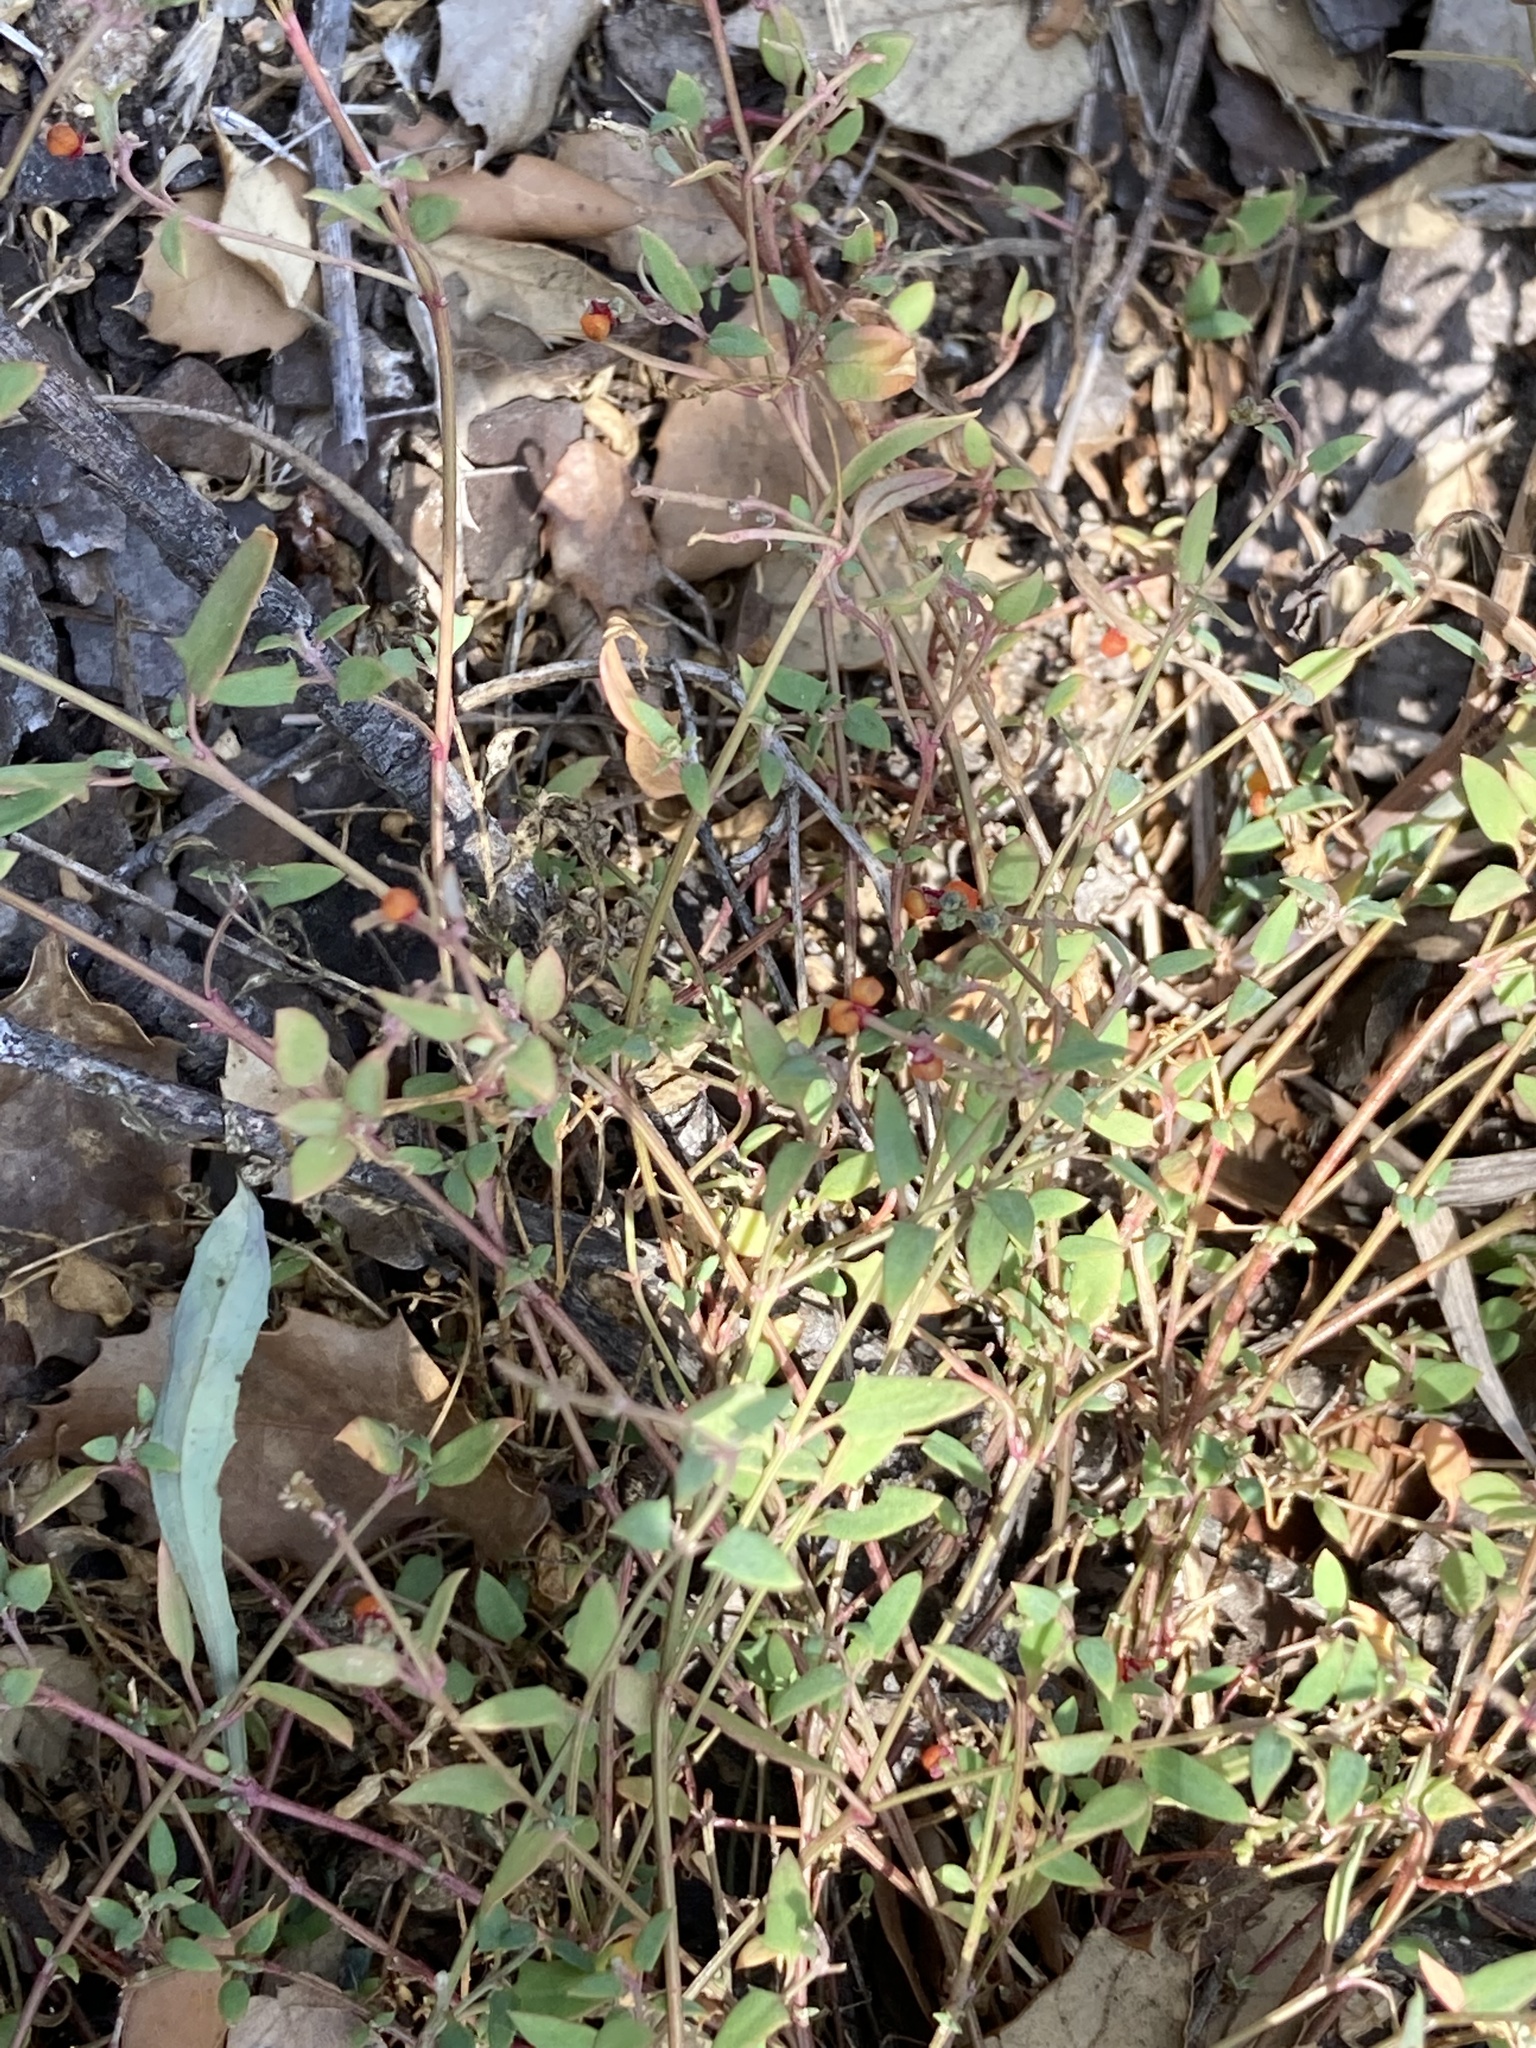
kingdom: Plantae
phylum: Tracheophyta
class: Magnoliopsida
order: Caryophyllales
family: Amaranthaceae
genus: Chenopodium
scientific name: Chenopodium nutans
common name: Climbing-saltbush
